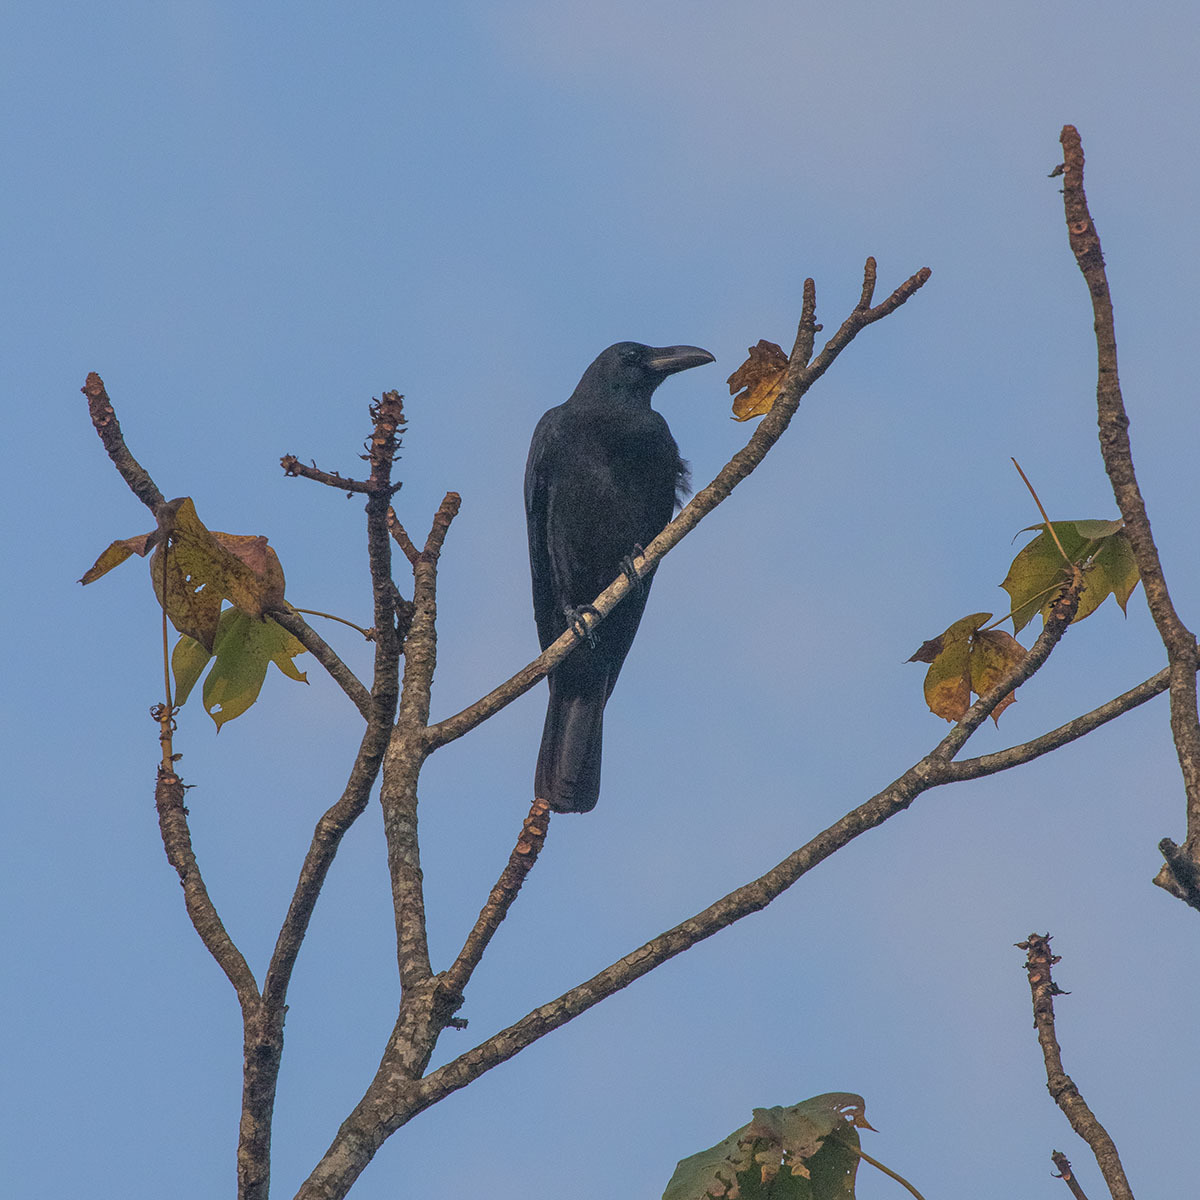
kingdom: Animalia
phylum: Chordata
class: Aves
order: Passeriformes
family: Corvidae
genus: Corvus
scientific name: Corvus macrorhynchos
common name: Large-billed crow
